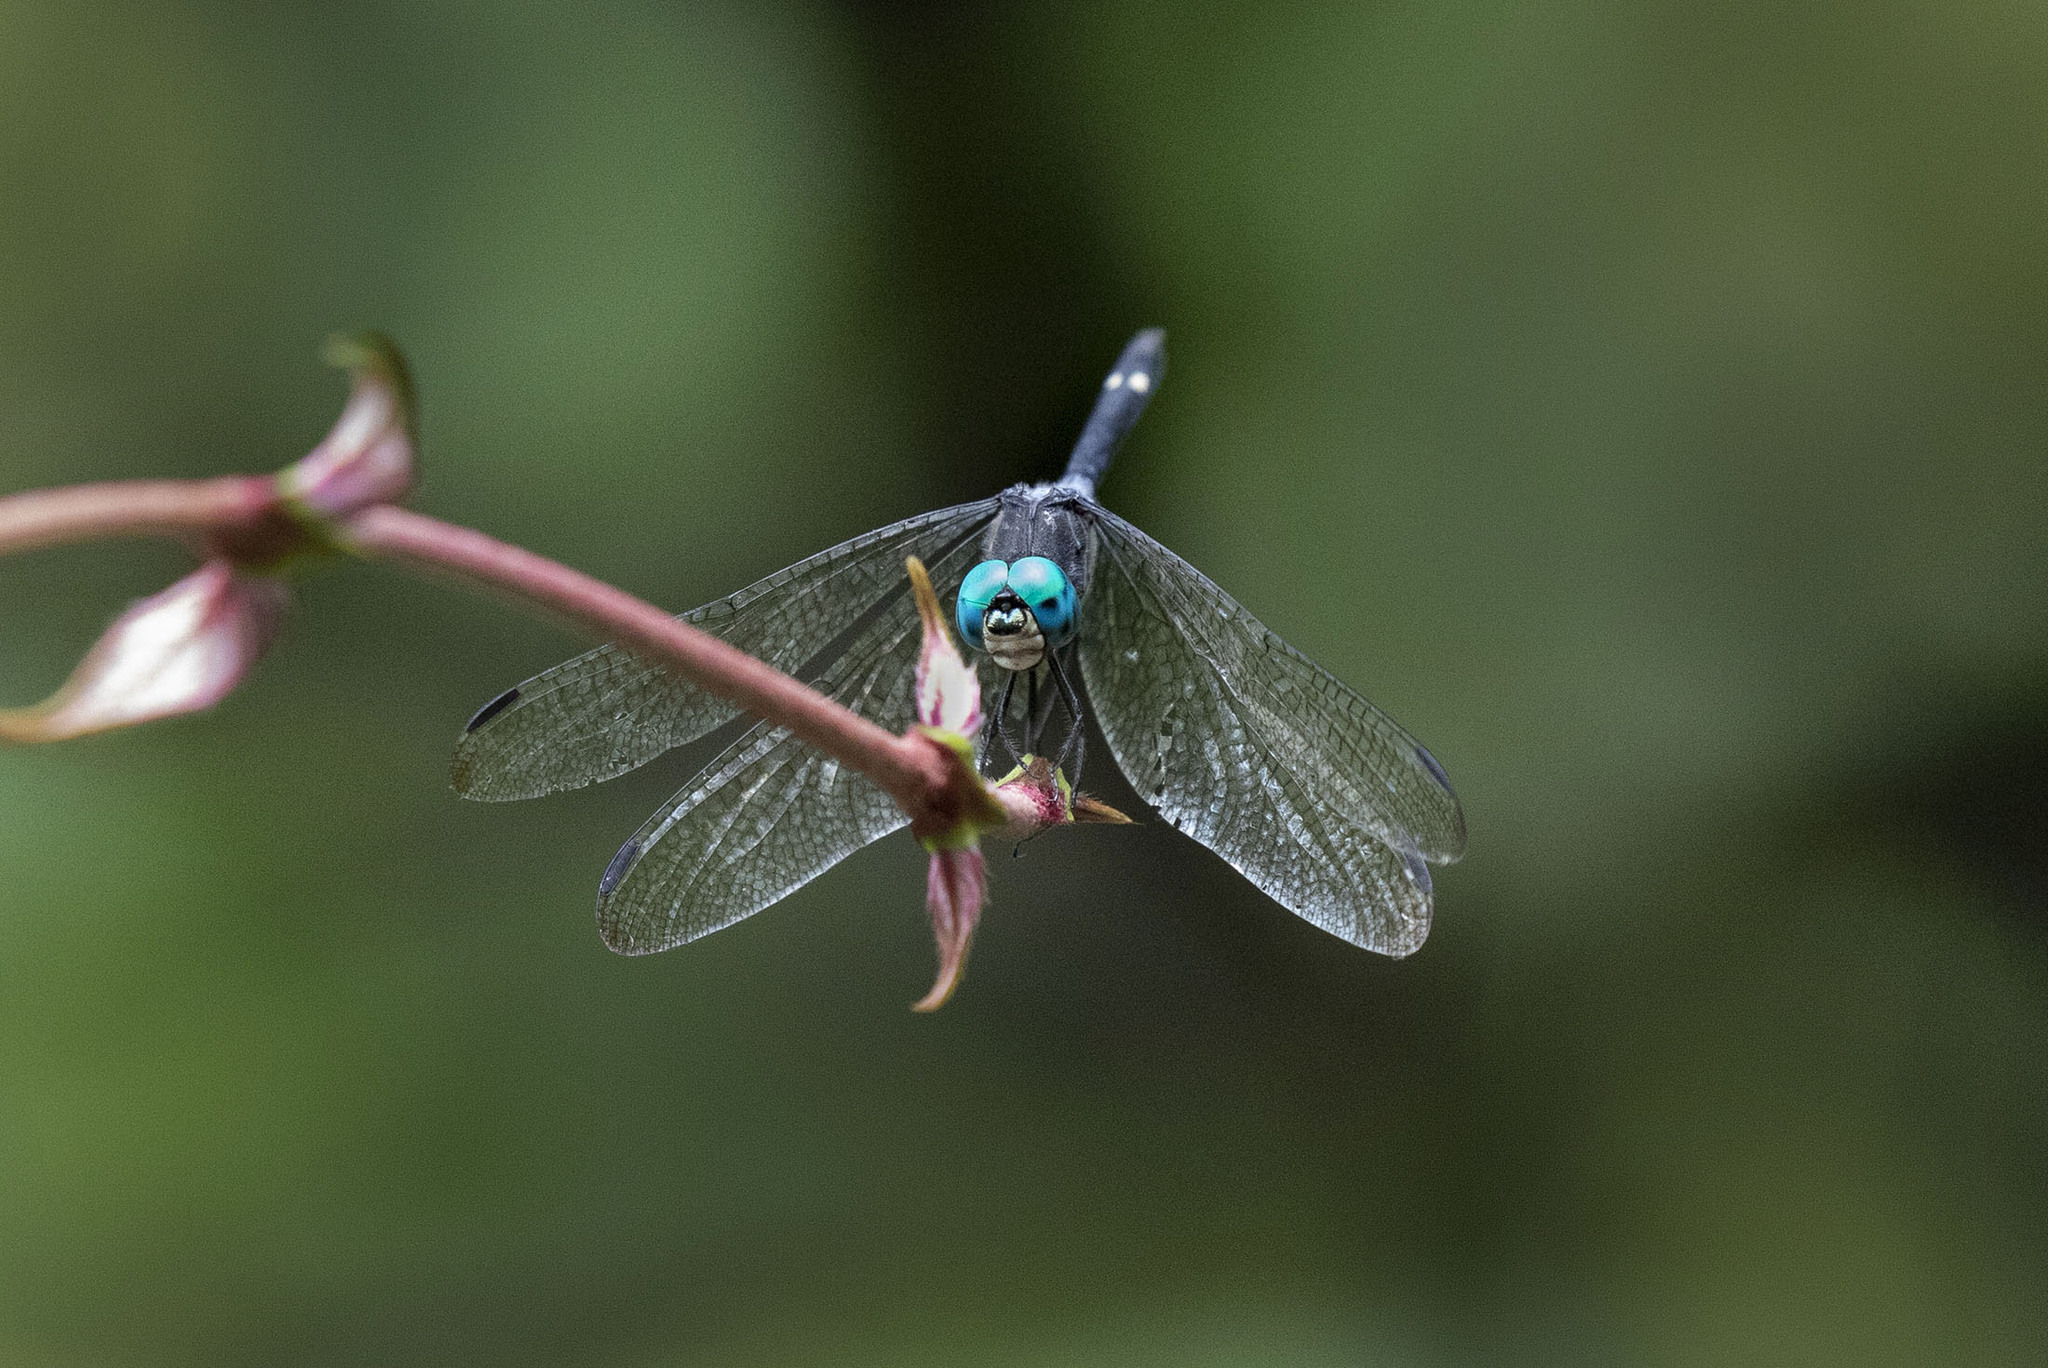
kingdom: Animalia
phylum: Arthropoda
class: Insecta
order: Odonata
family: Libellulidae
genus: Micrathyria
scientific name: Micrathyria atra
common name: Black dasher
